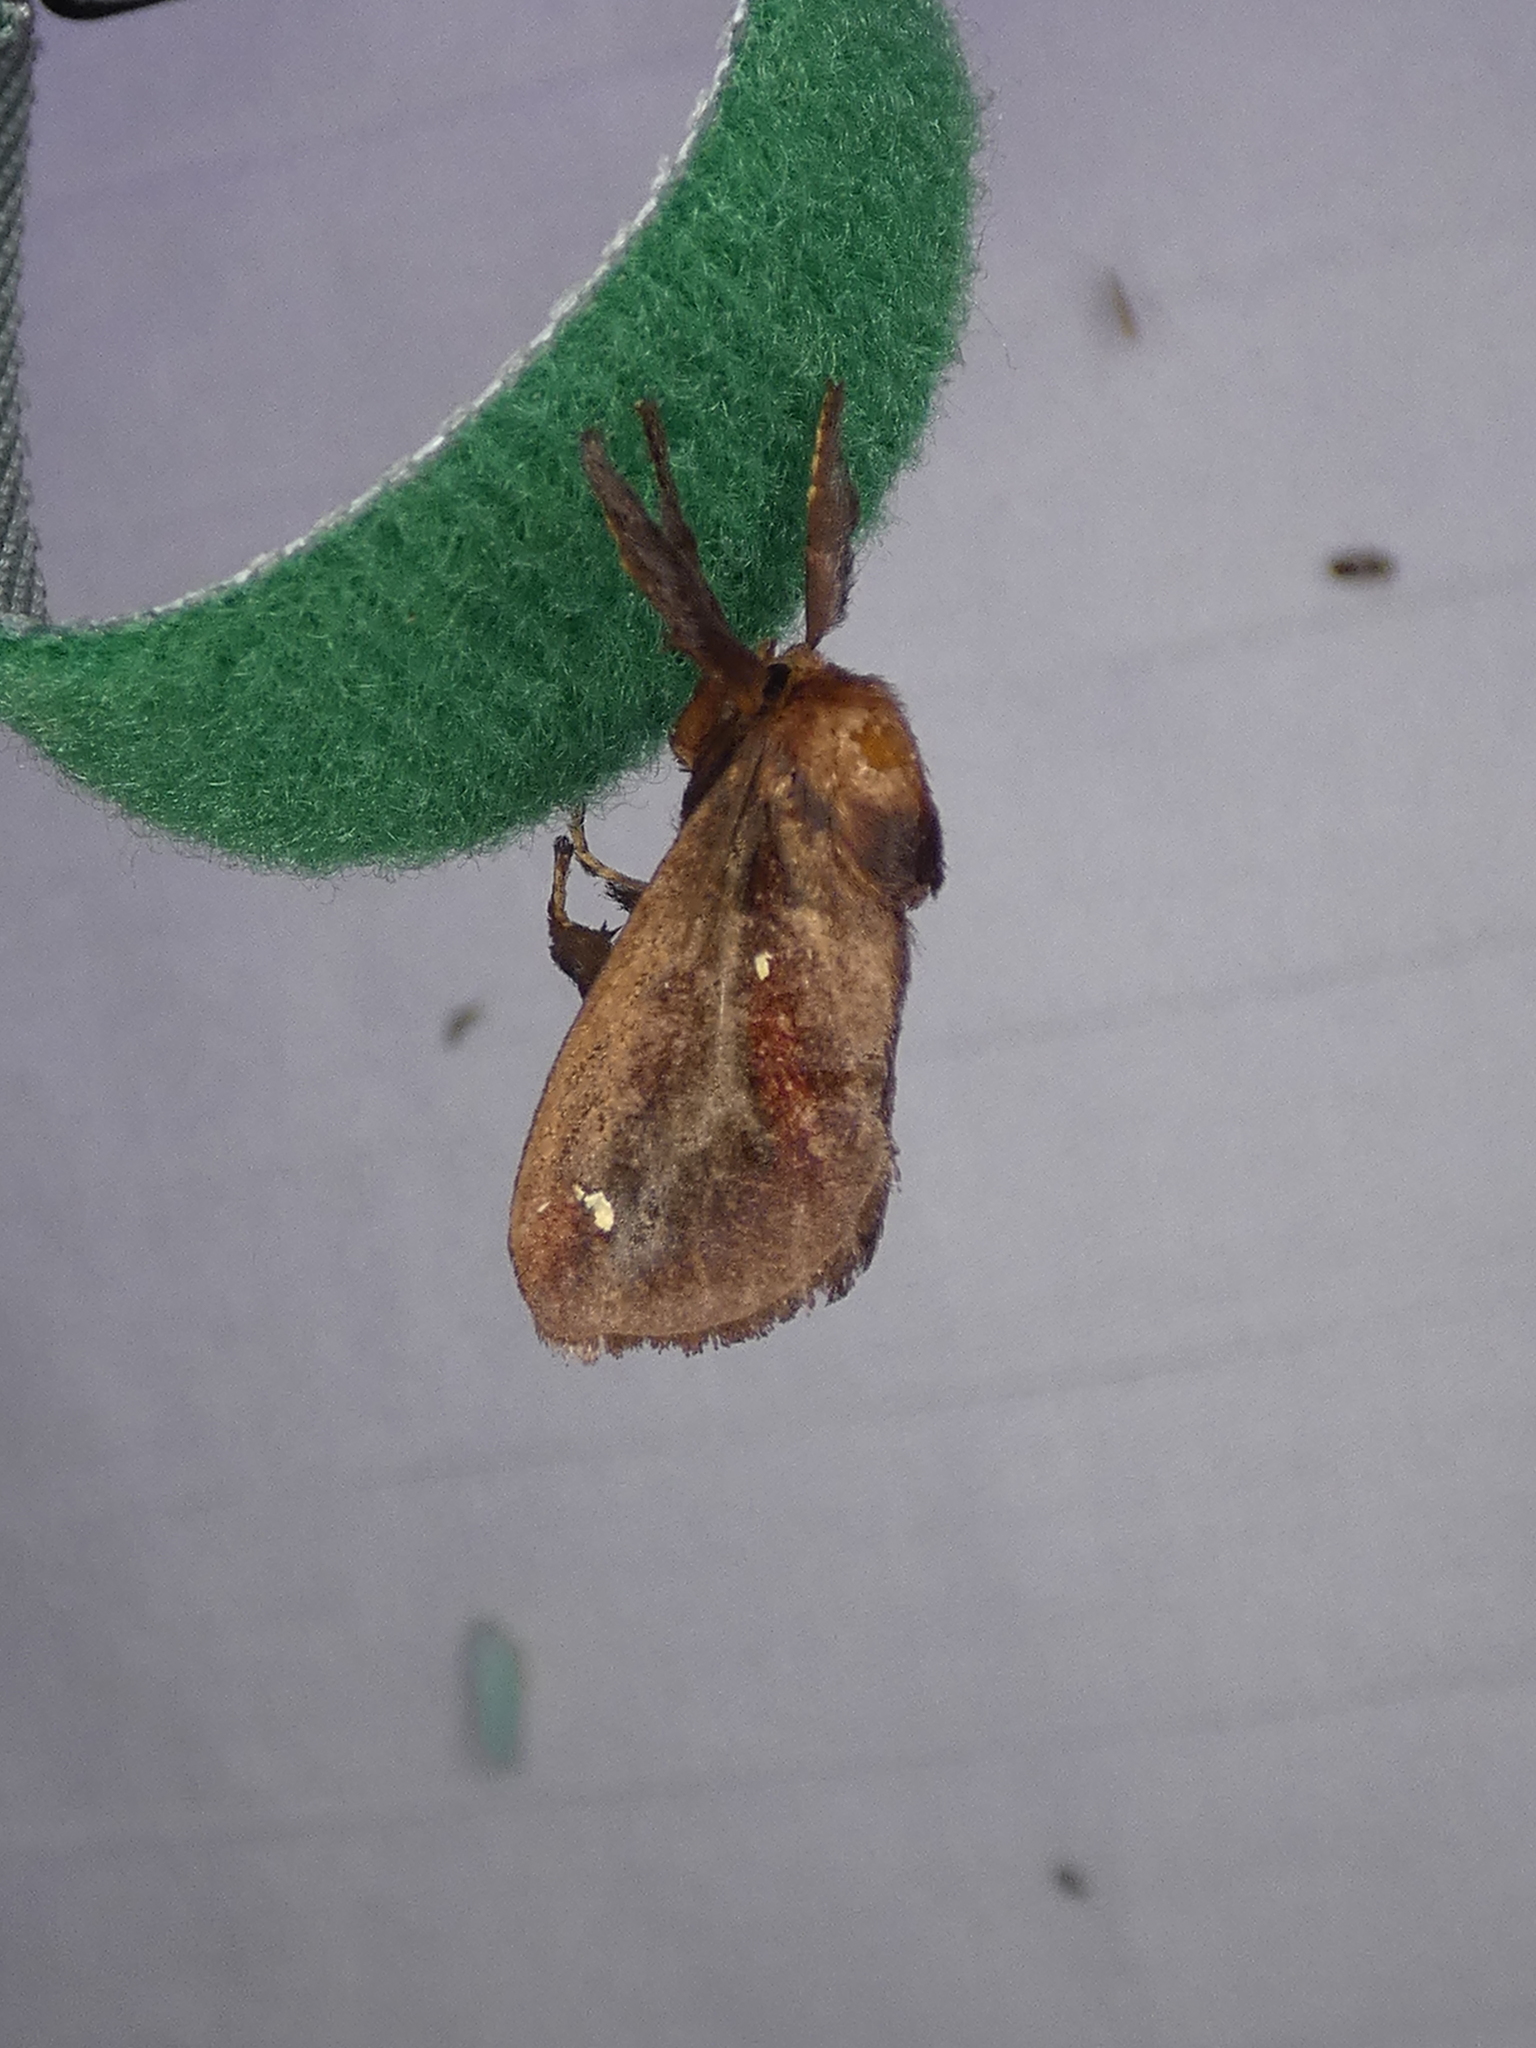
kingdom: Animalia
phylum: Arthropoda
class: Insecta
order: Lepidoptera
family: Limacodidae
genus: Acharia
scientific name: Acharia stimulea
